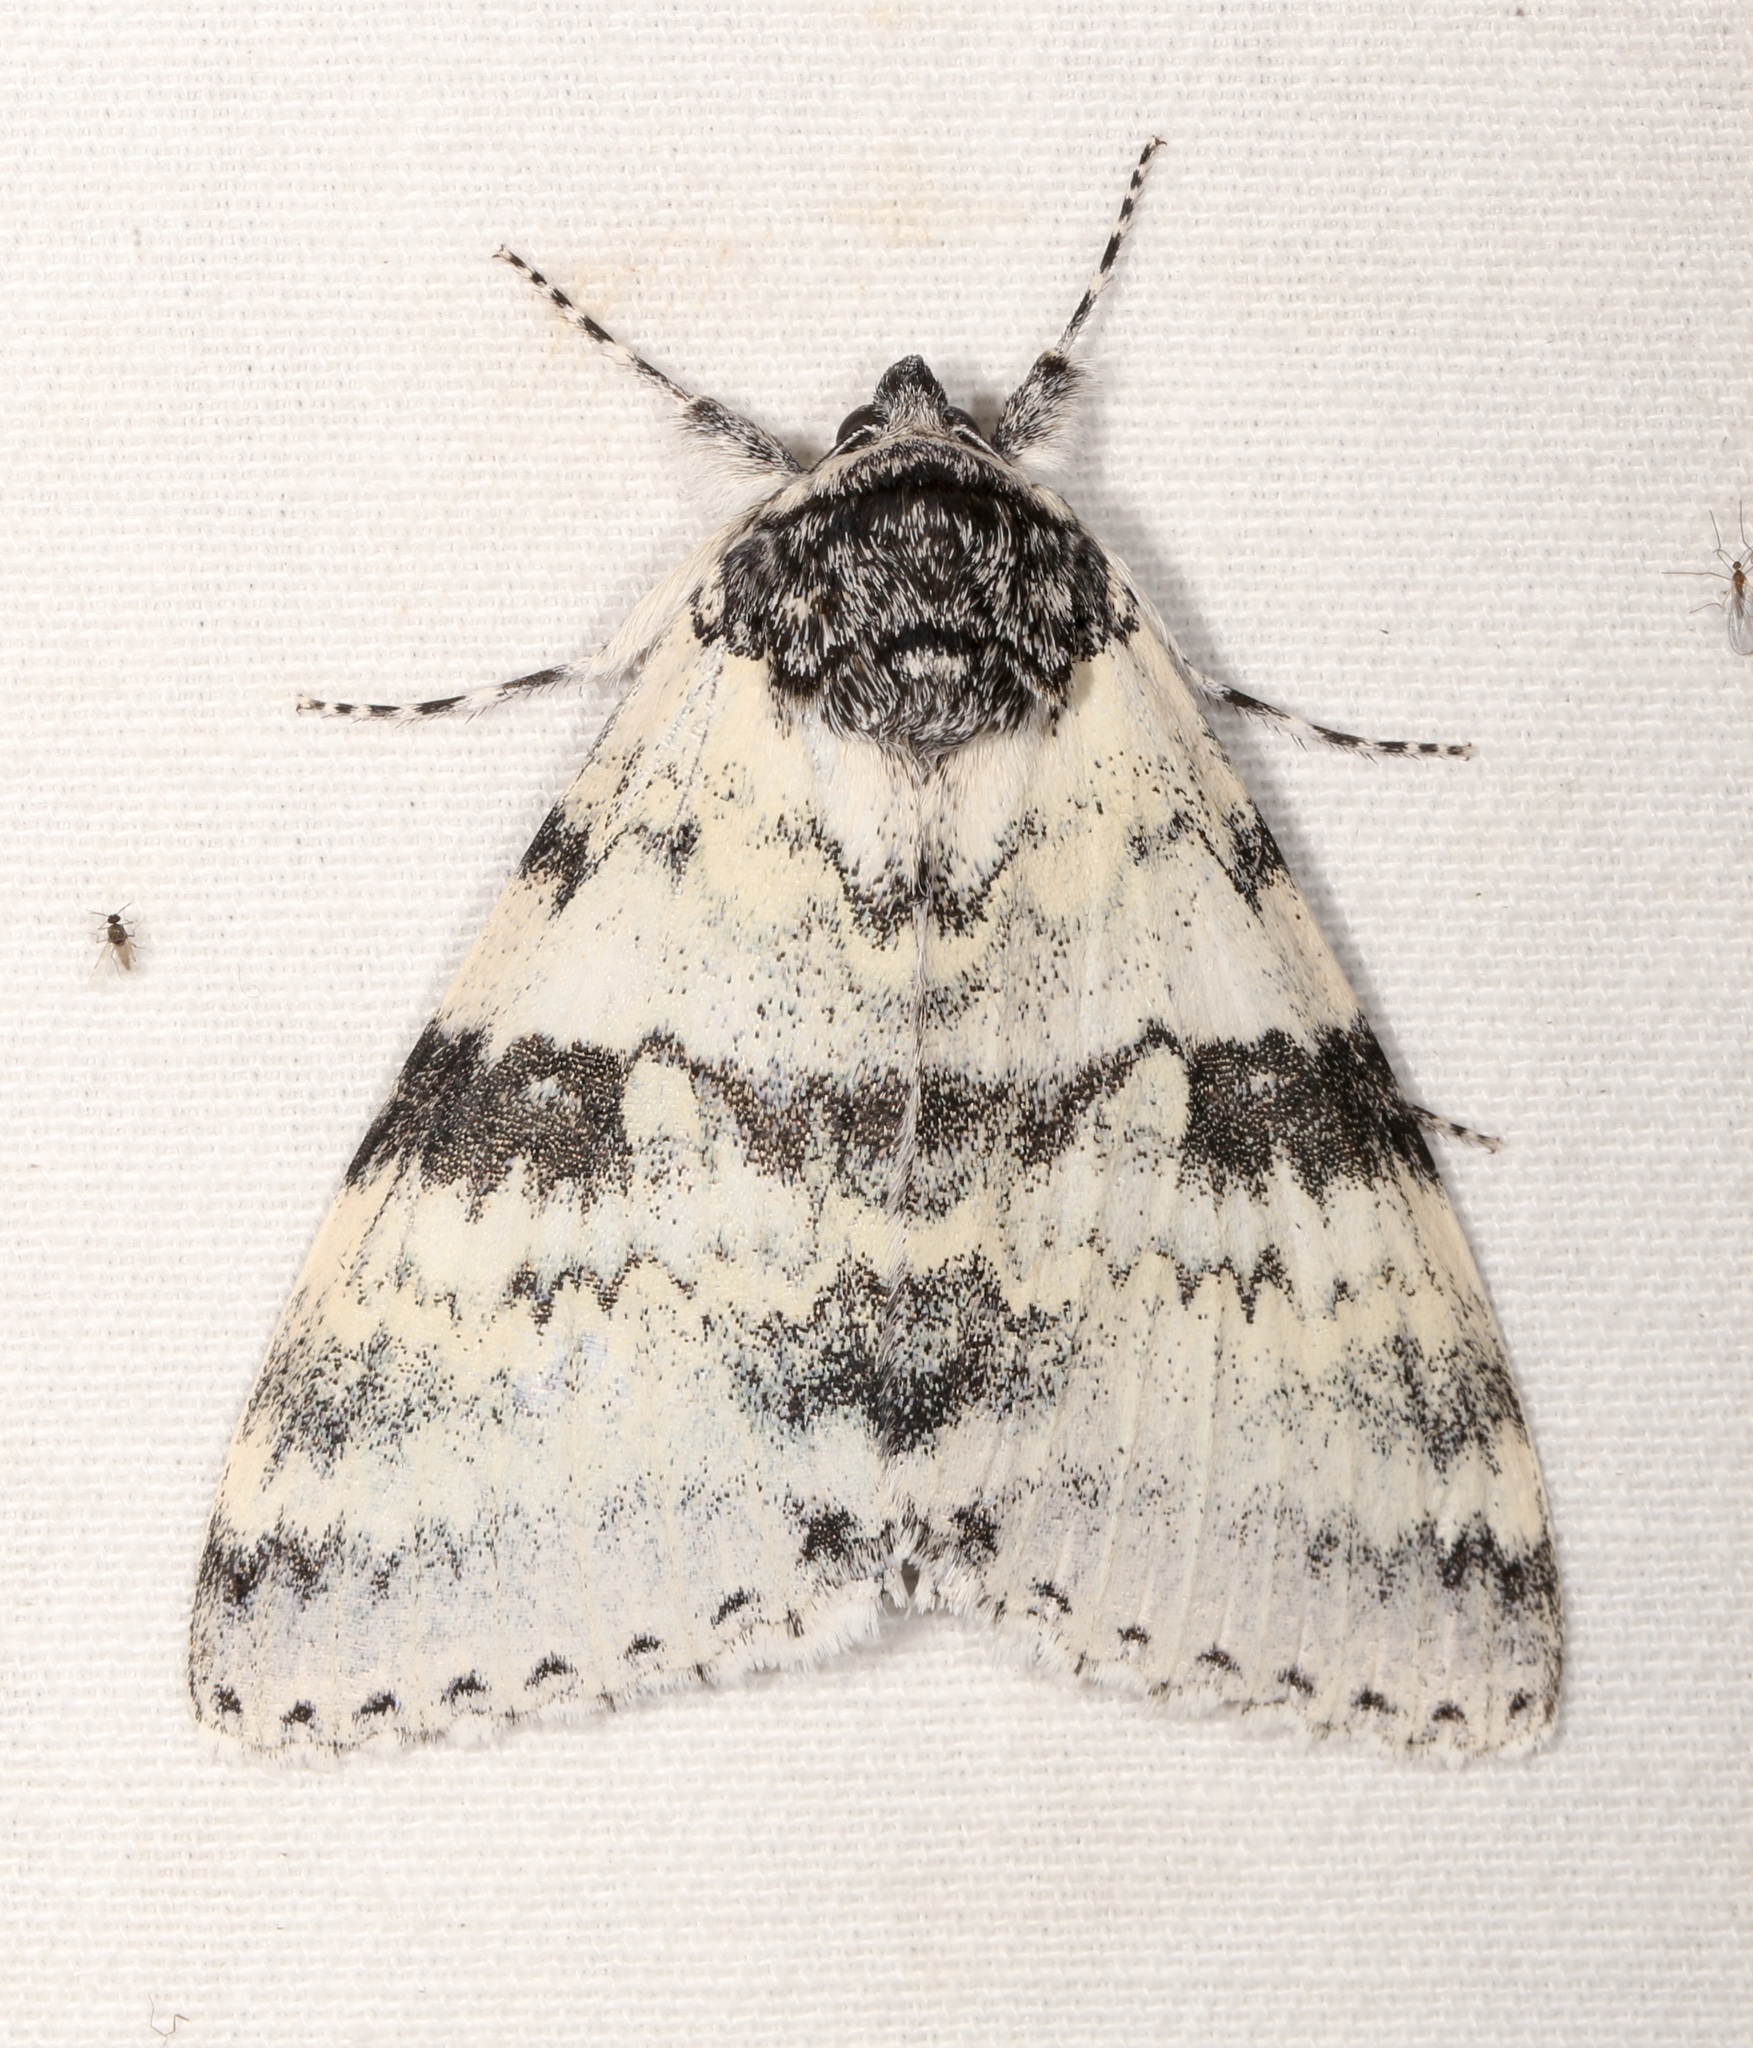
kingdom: Animalia
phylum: Arthropoda
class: Insecta
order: Lepidoptera
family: Erebidae
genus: Catocala
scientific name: Catocala relicta
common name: White underwing
